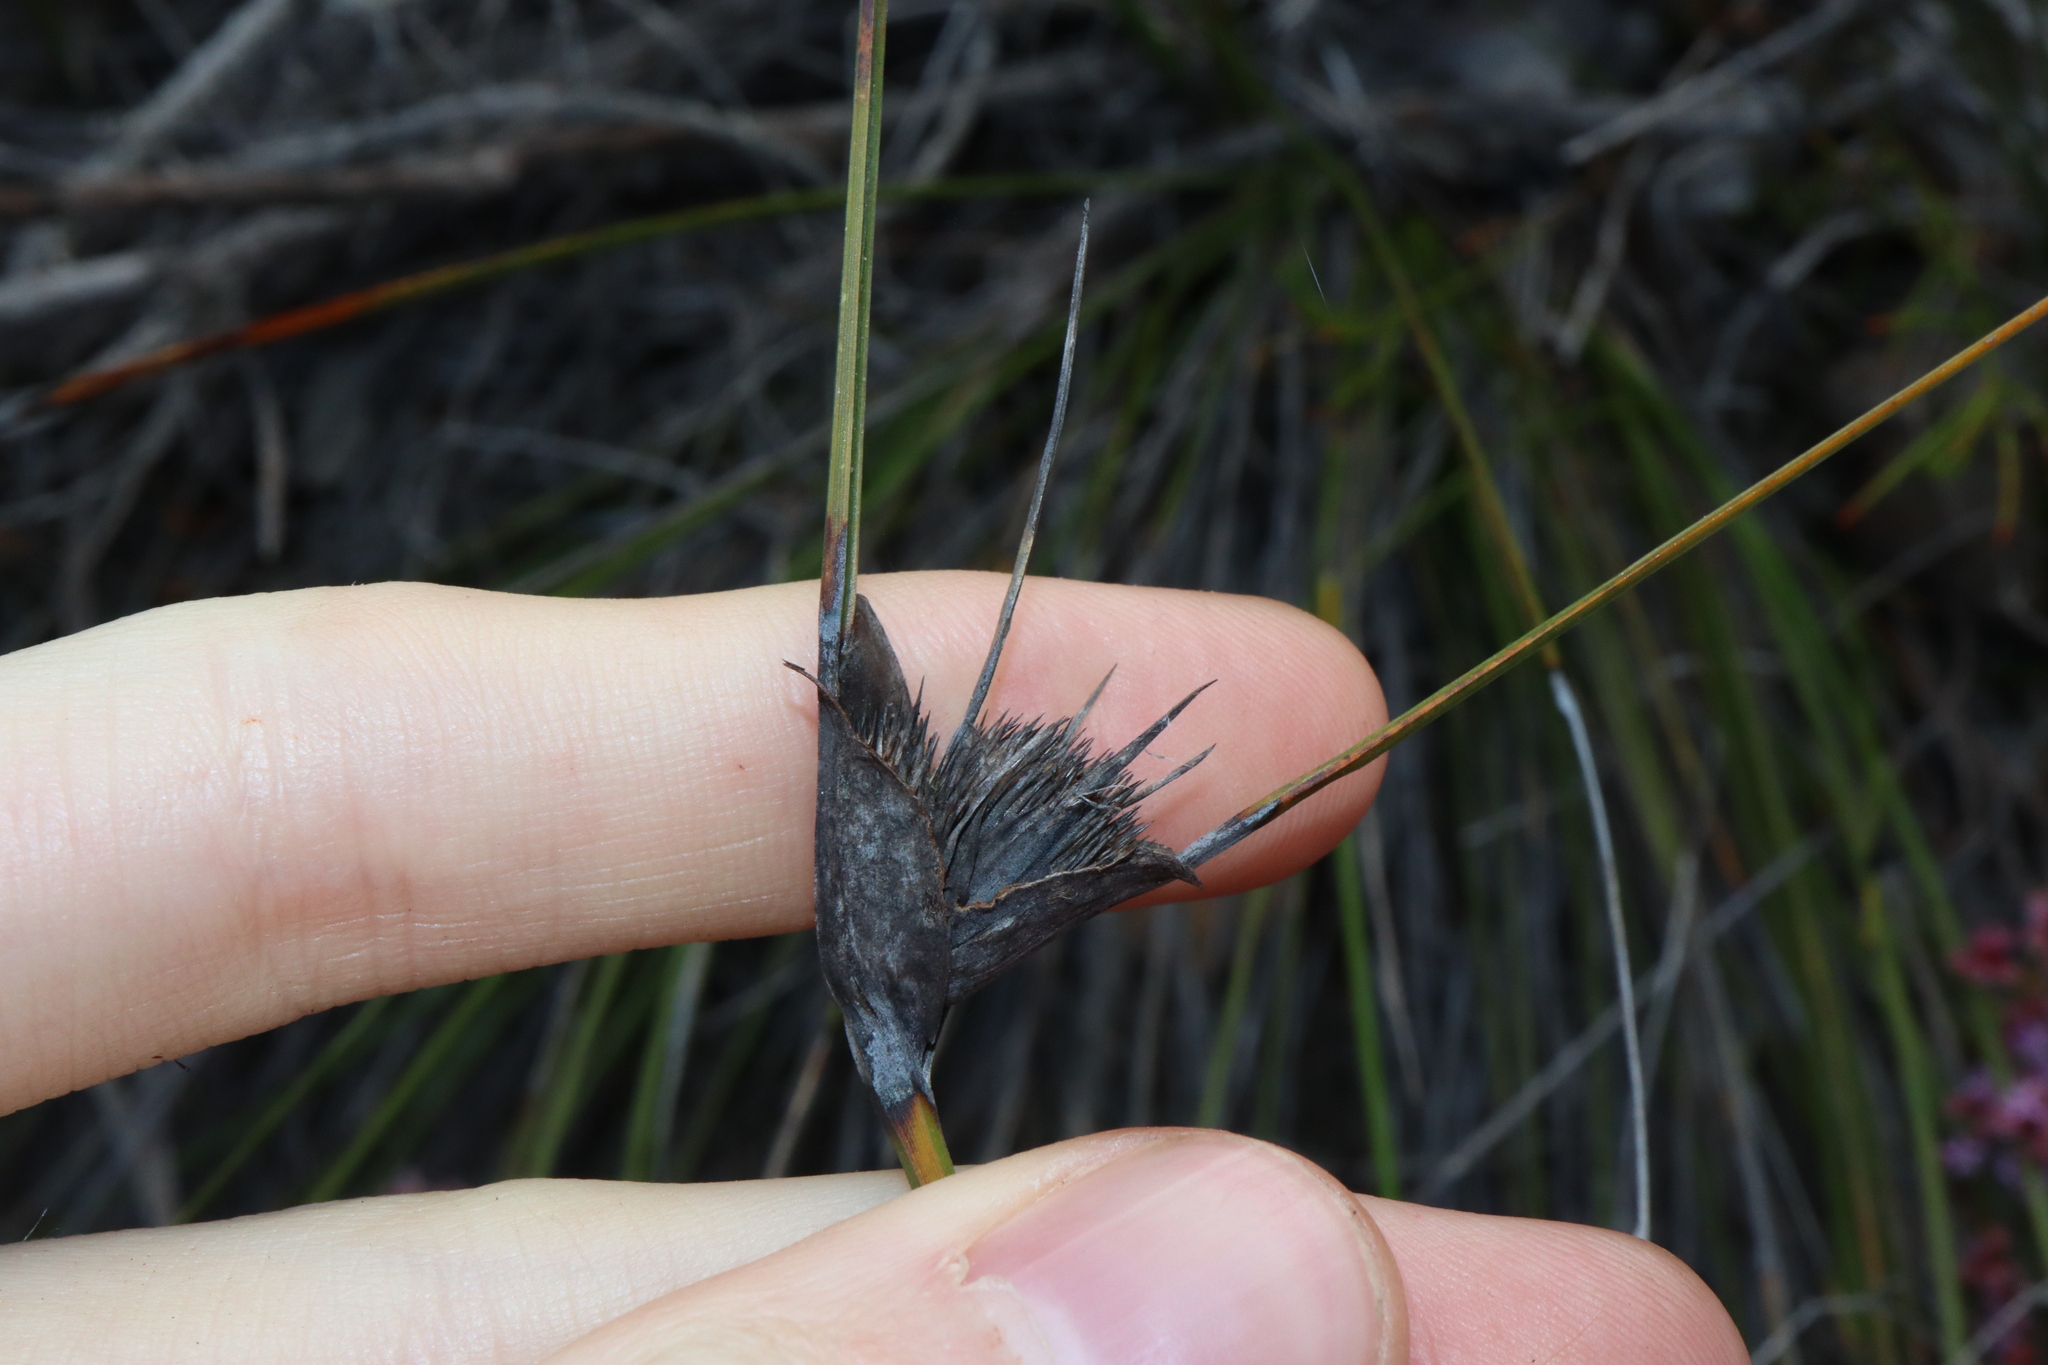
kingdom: Plantae
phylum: Tracheophyta
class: Liliopsida
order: Poales
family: Cyperaceae
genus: Mesomelaena
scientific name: Mesomelaena tetragona
